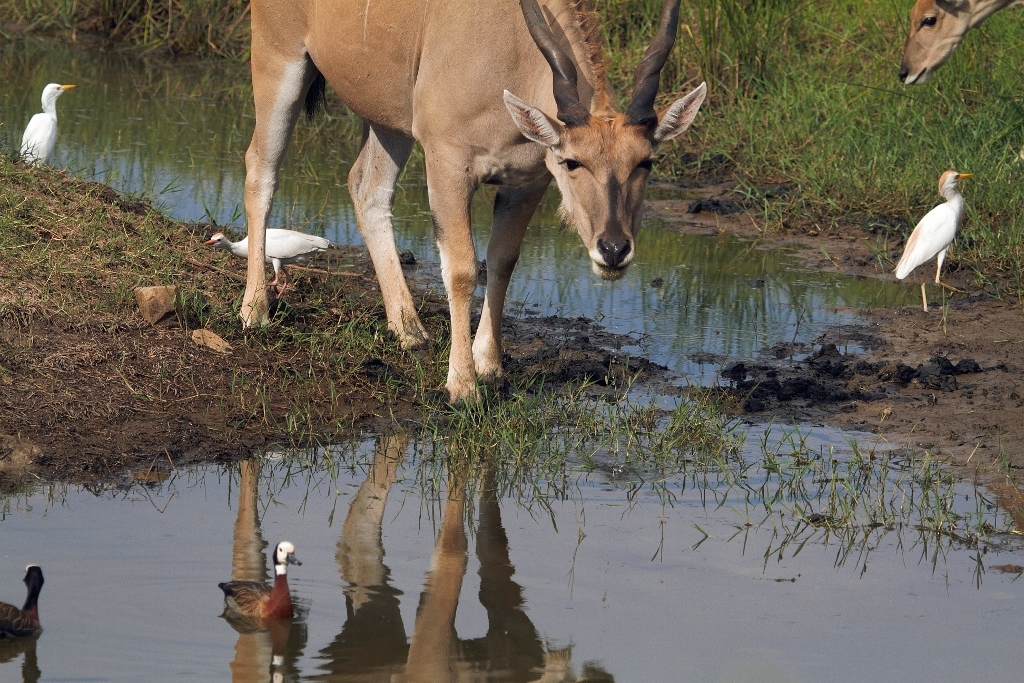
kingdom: Animalia
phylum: Chordata
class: Aves
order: Pelecaniformes
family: Ardeidae
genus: Bubulcus
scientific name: Bubulcus ibis
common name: Cattle egret
